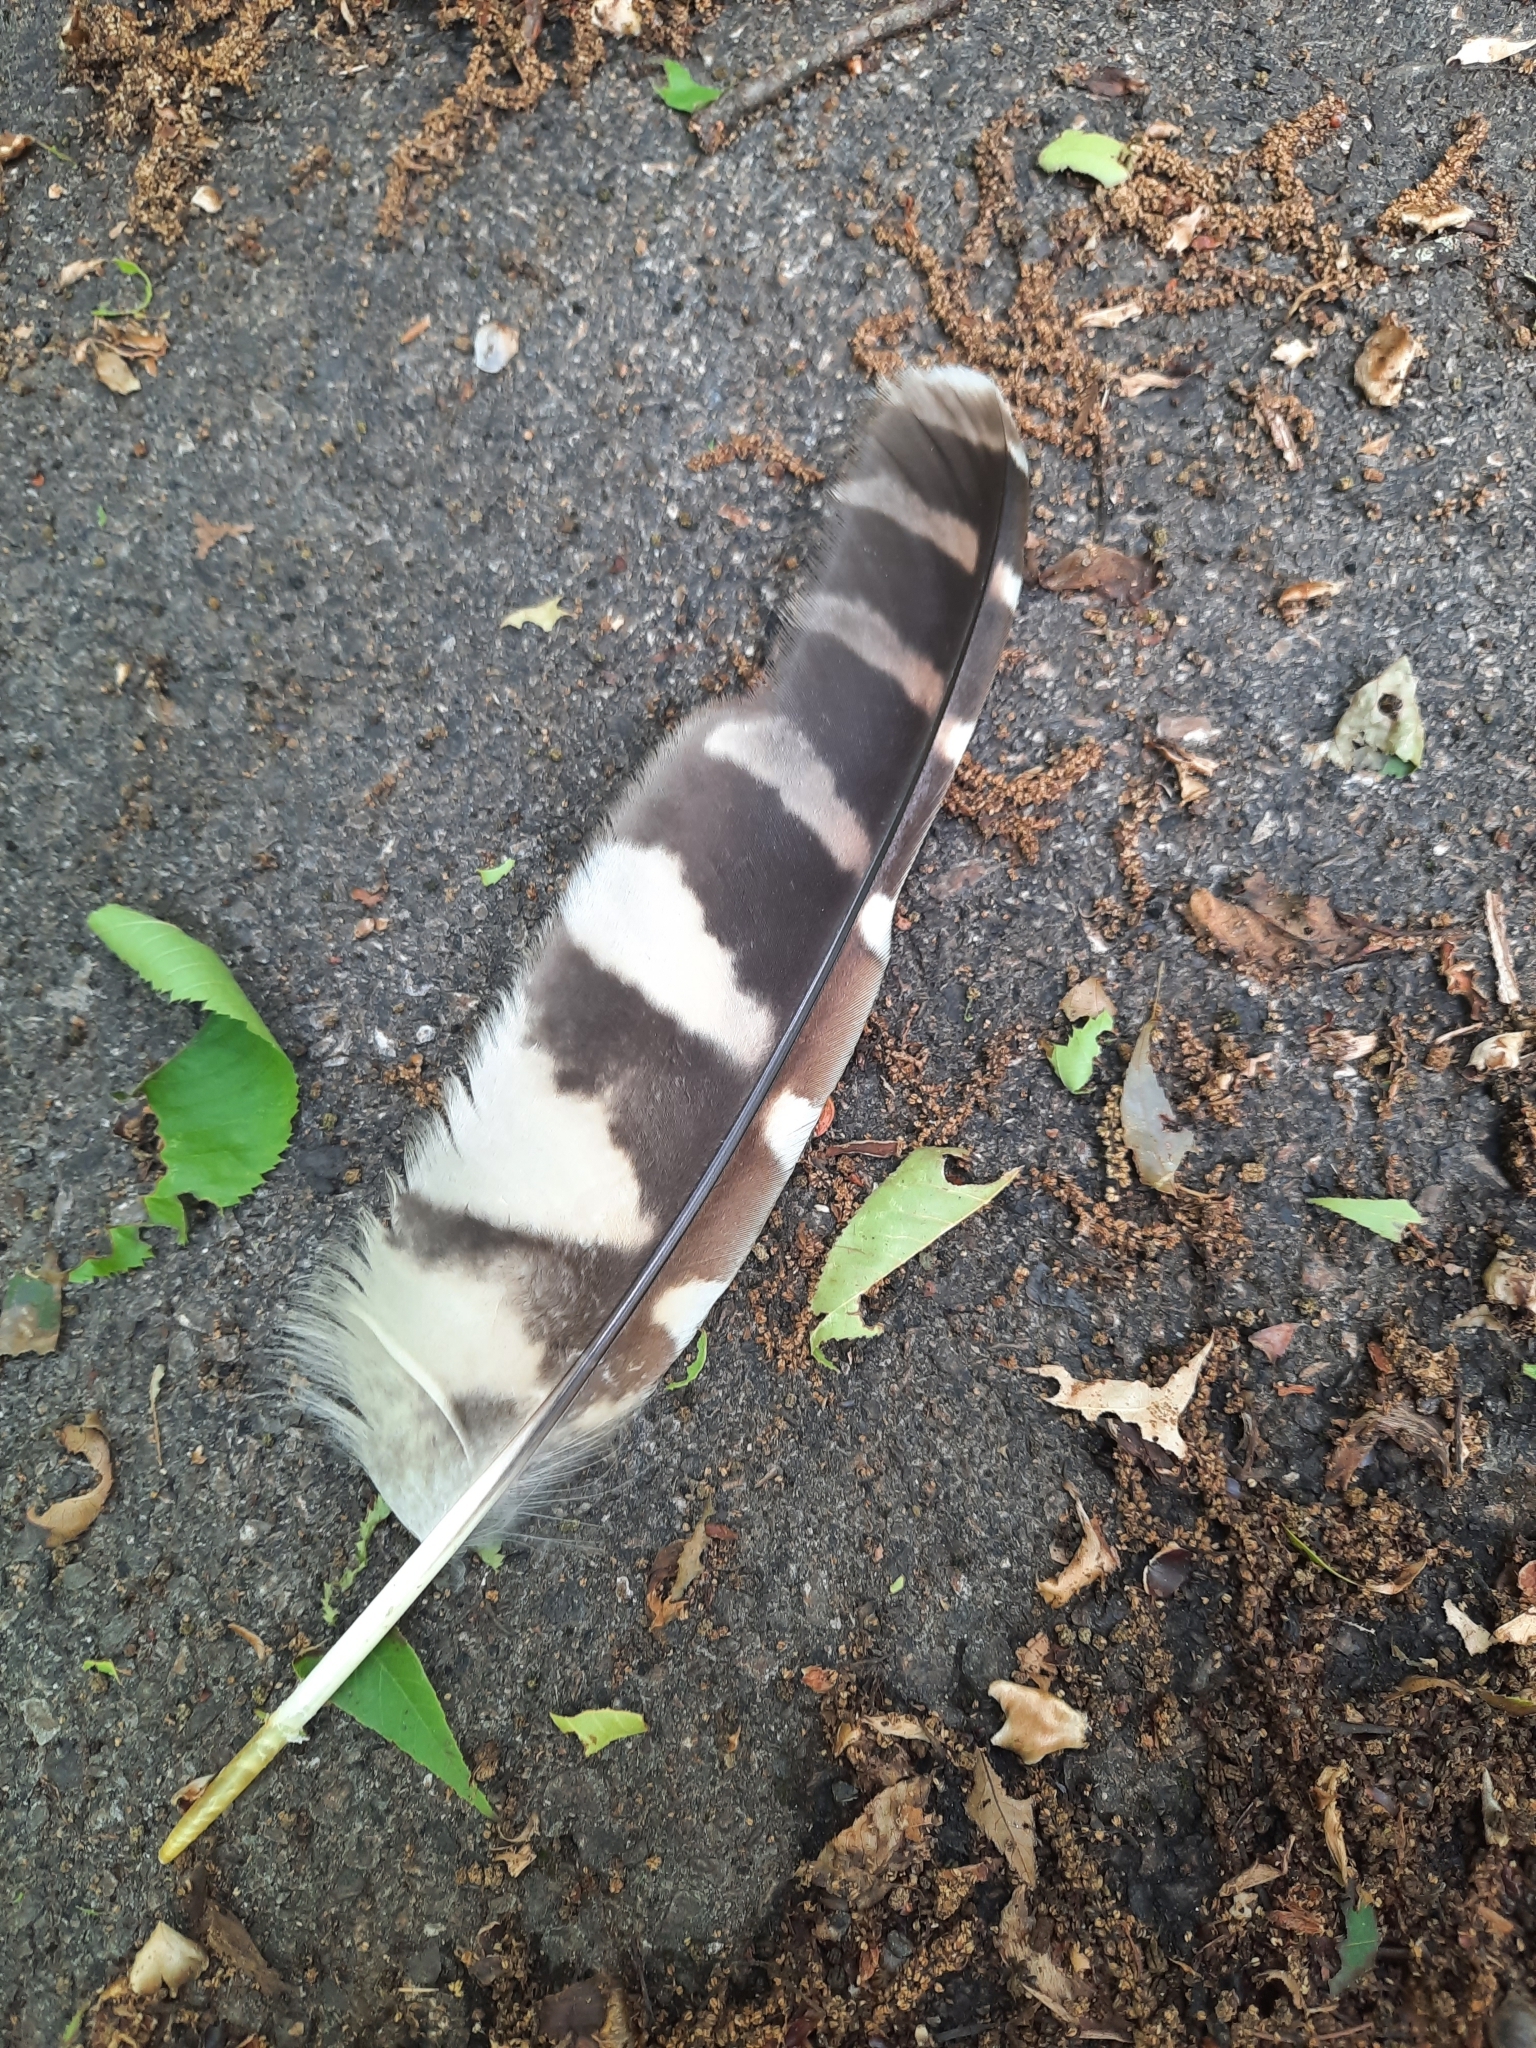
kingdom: Animalia
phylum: Chordata
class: Aves
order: Strigiformes
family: Strigidae
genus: Strix
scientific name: Strix varia
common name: Barred owl
